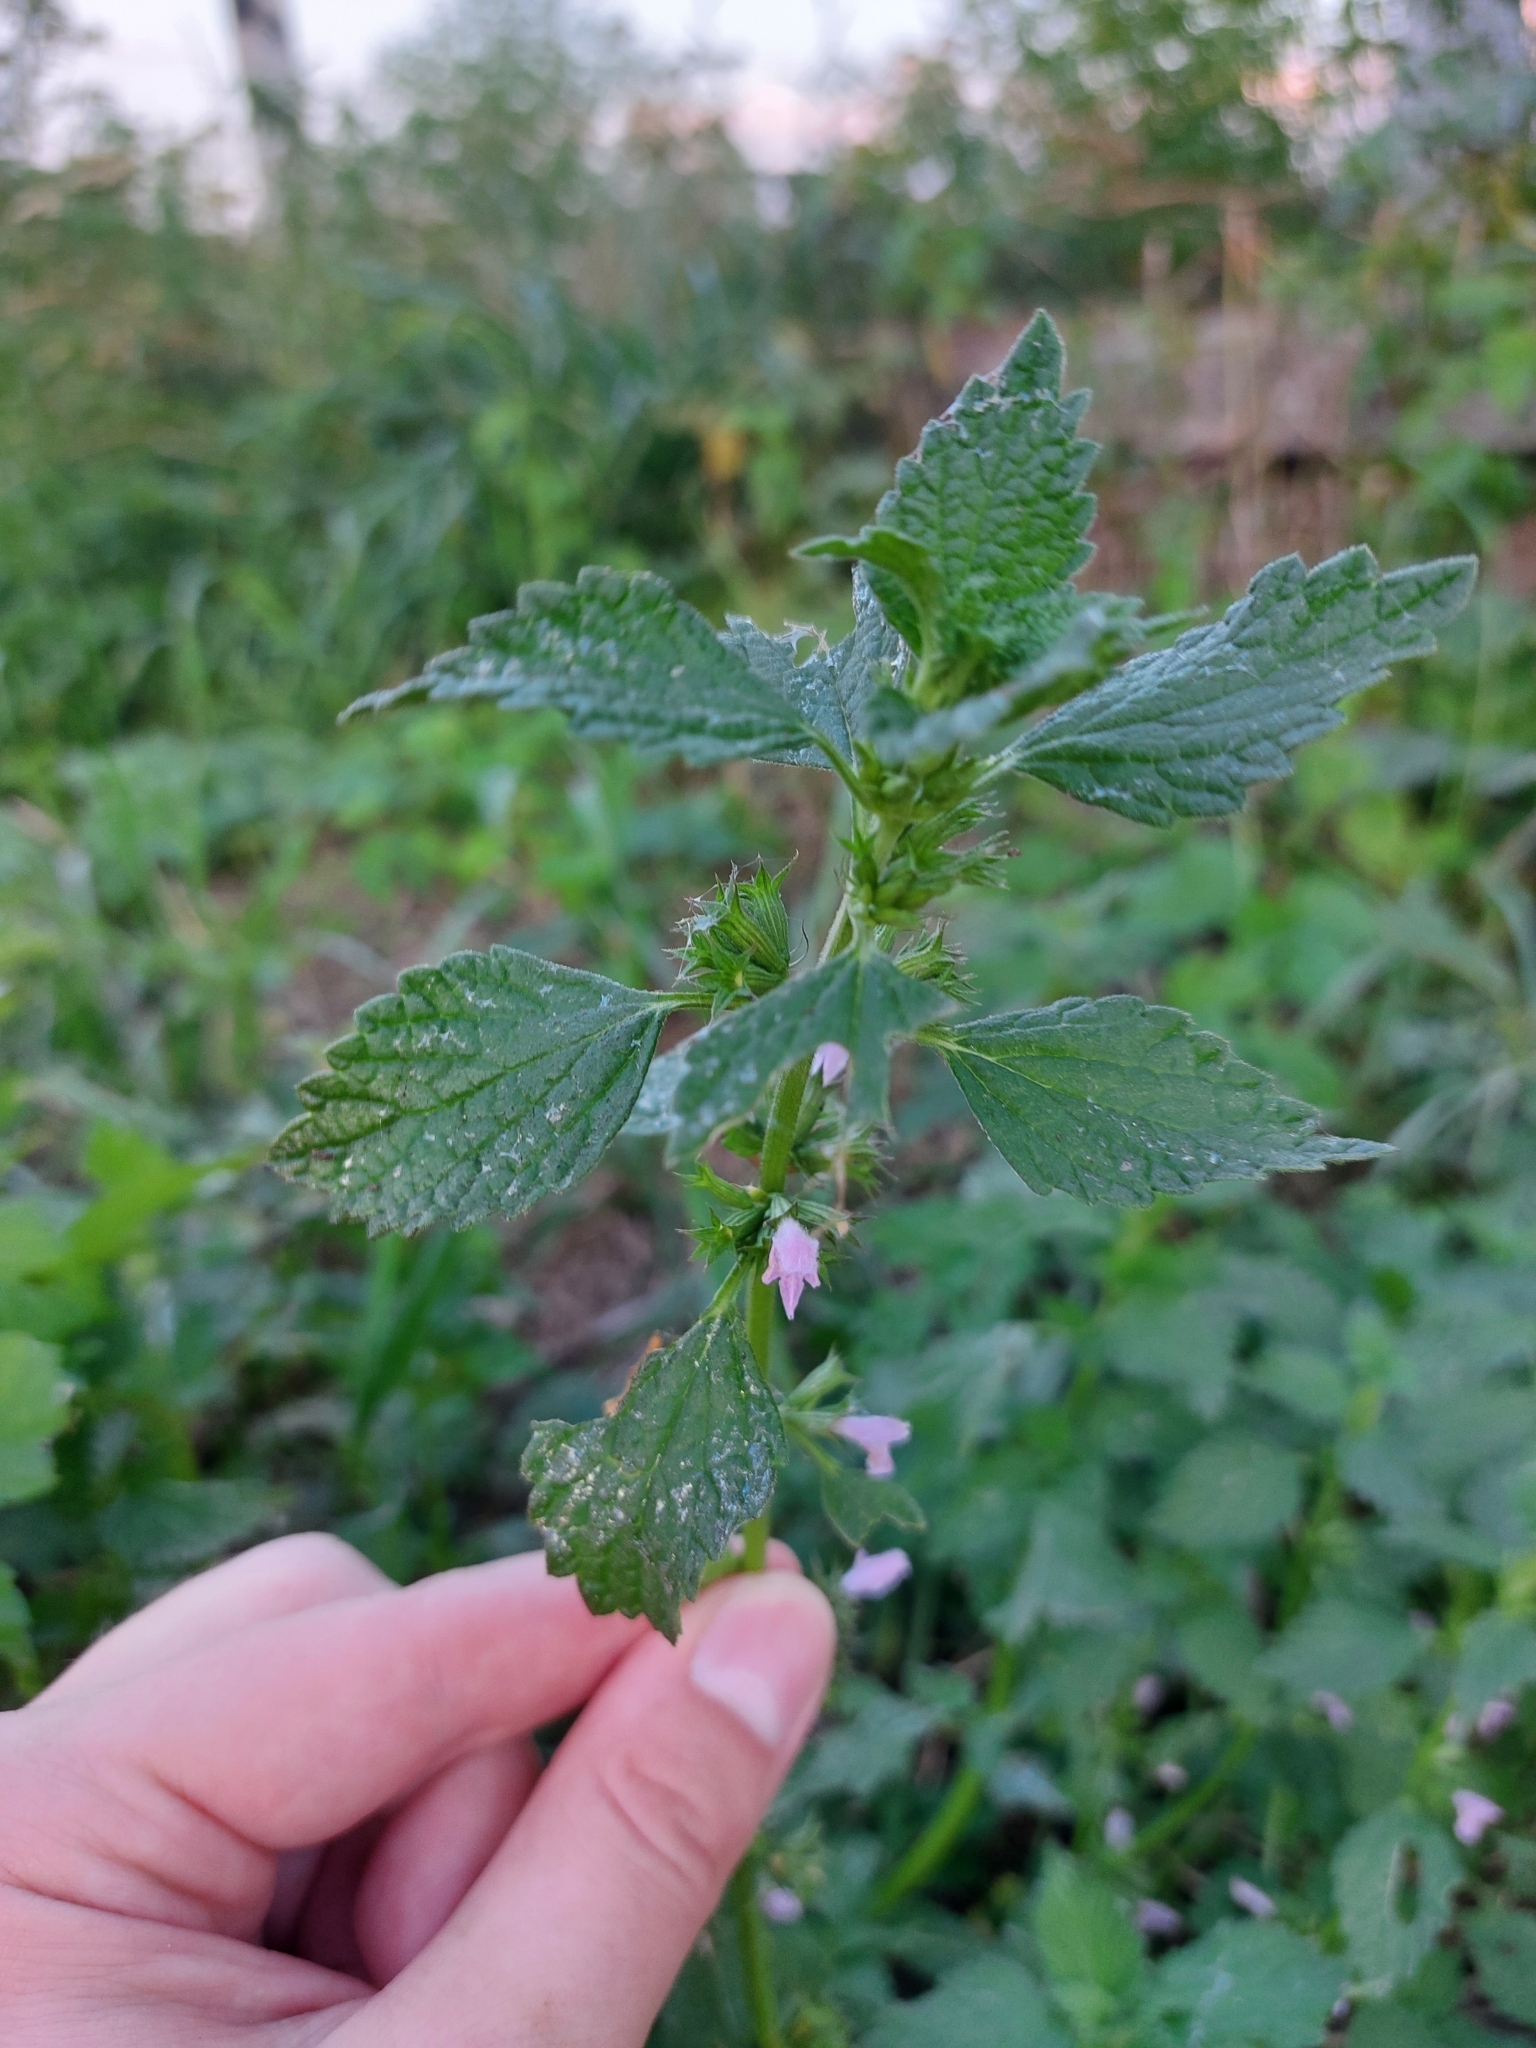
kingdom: Plantae
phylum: Tracheophyta
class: Magnoliopsida
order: Lamiales
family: Lamiaceae
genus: Ballota
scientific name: Ballota nigra
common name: Black horehound
